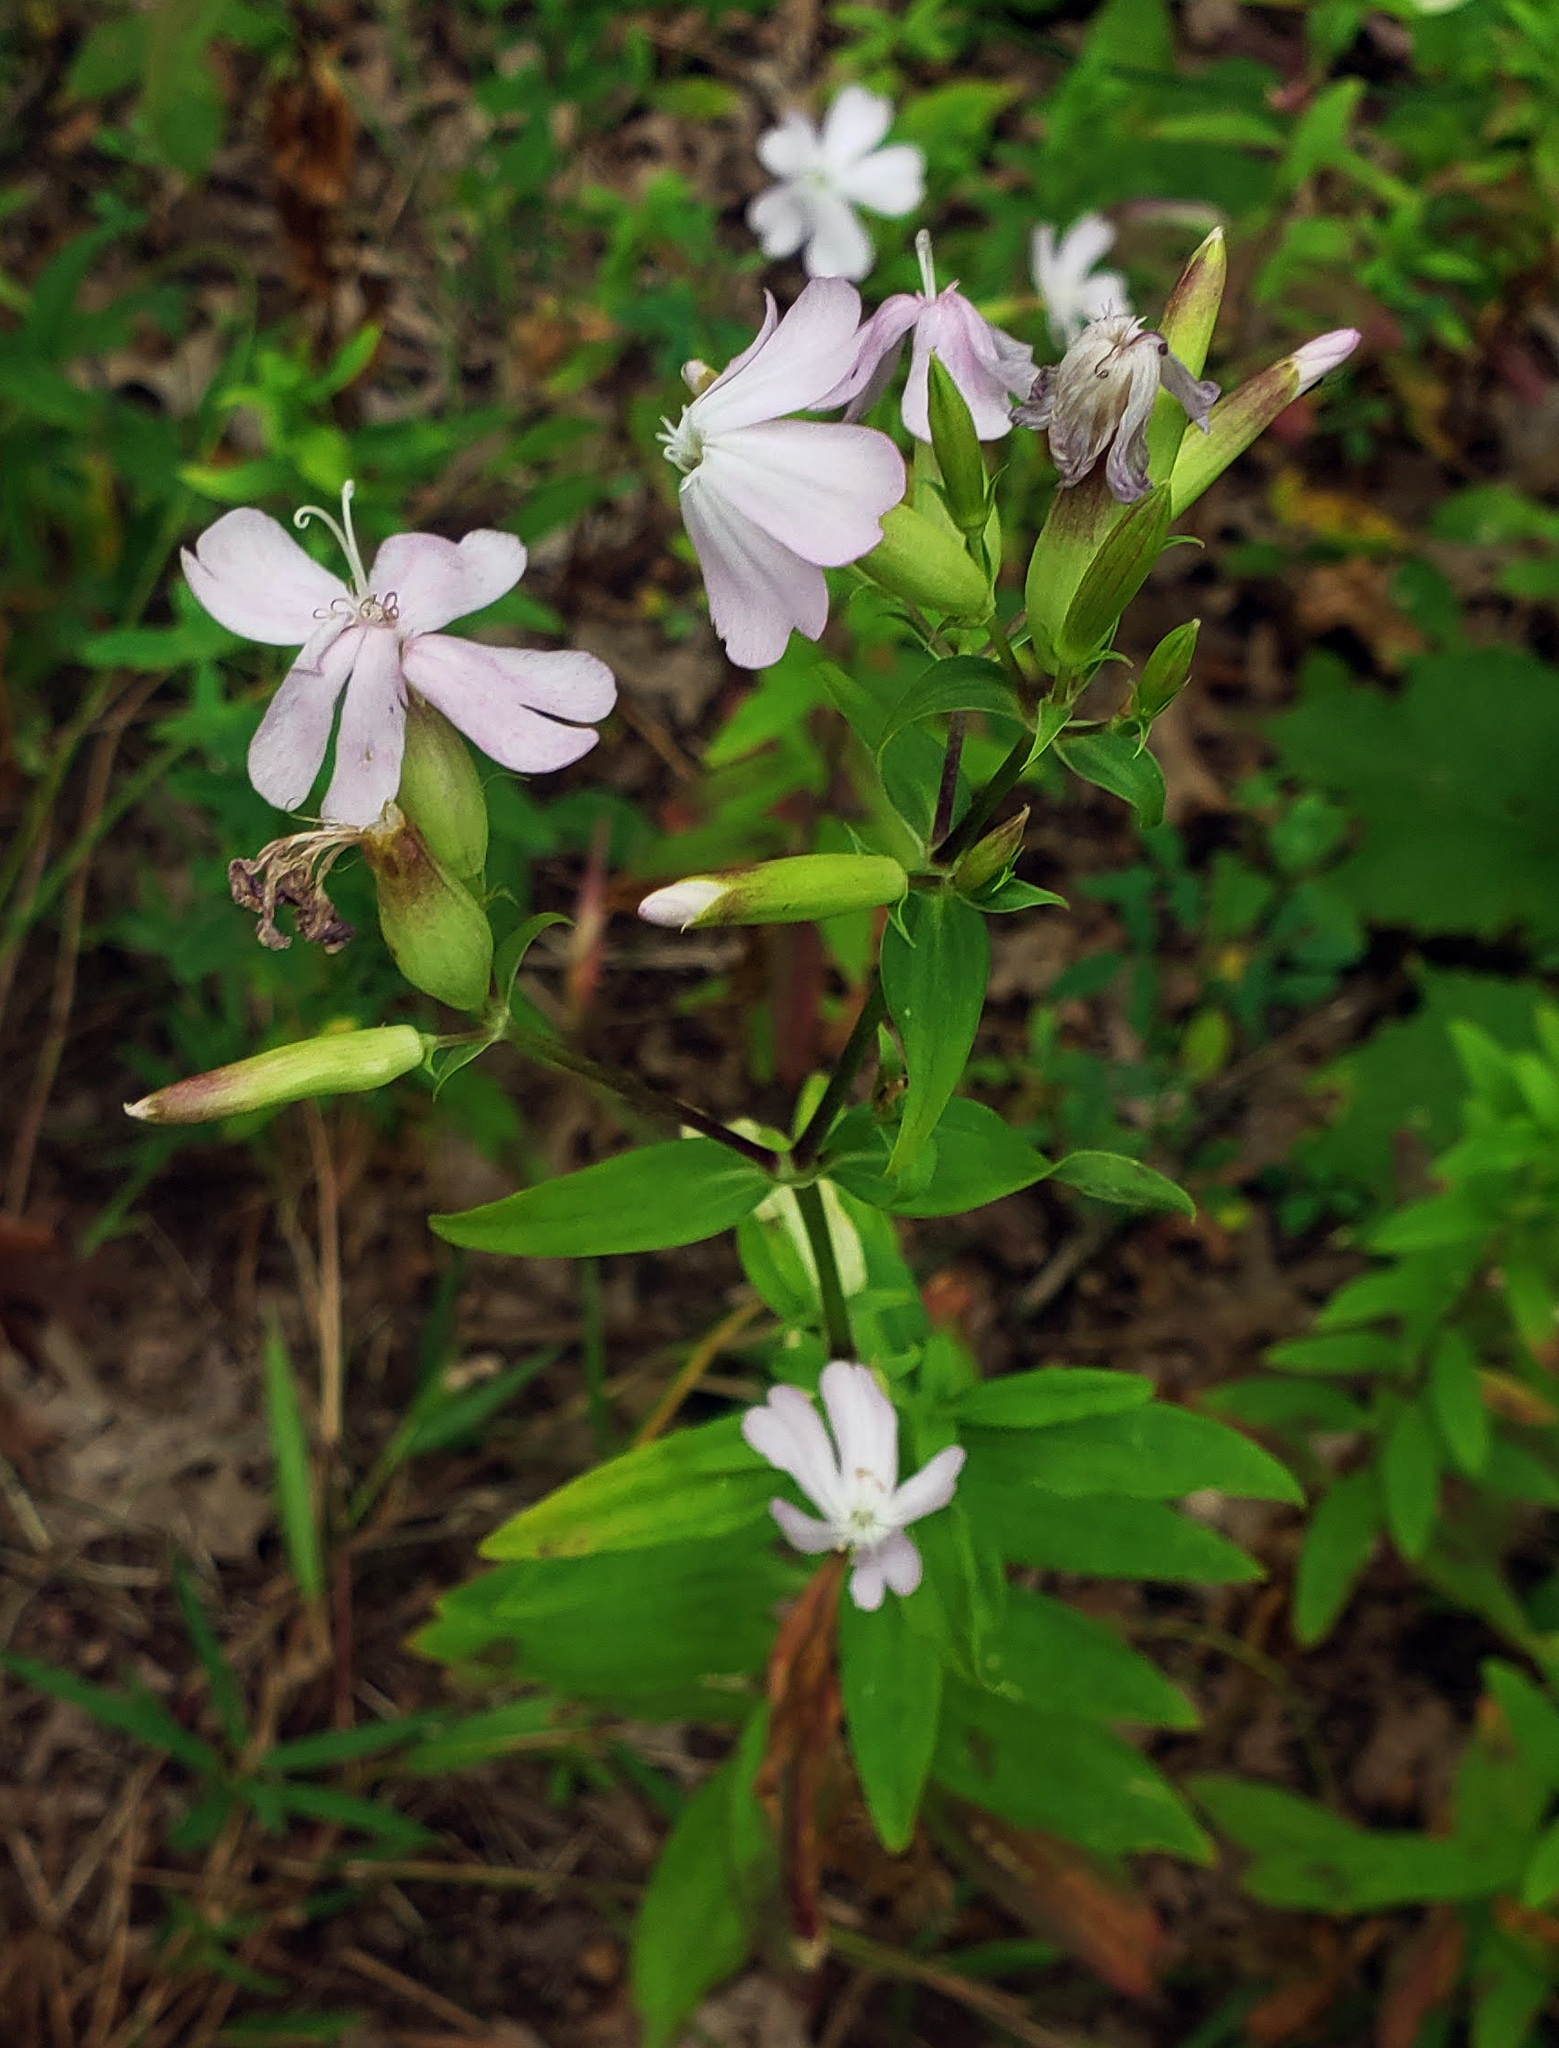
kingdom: Plantae
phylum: Tracheophyta
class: Magnoliopsida
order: Caryophyllales
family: Caryophyllaceae
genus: Saponaria
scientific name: Saponaria officinalis
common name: Soapwort
